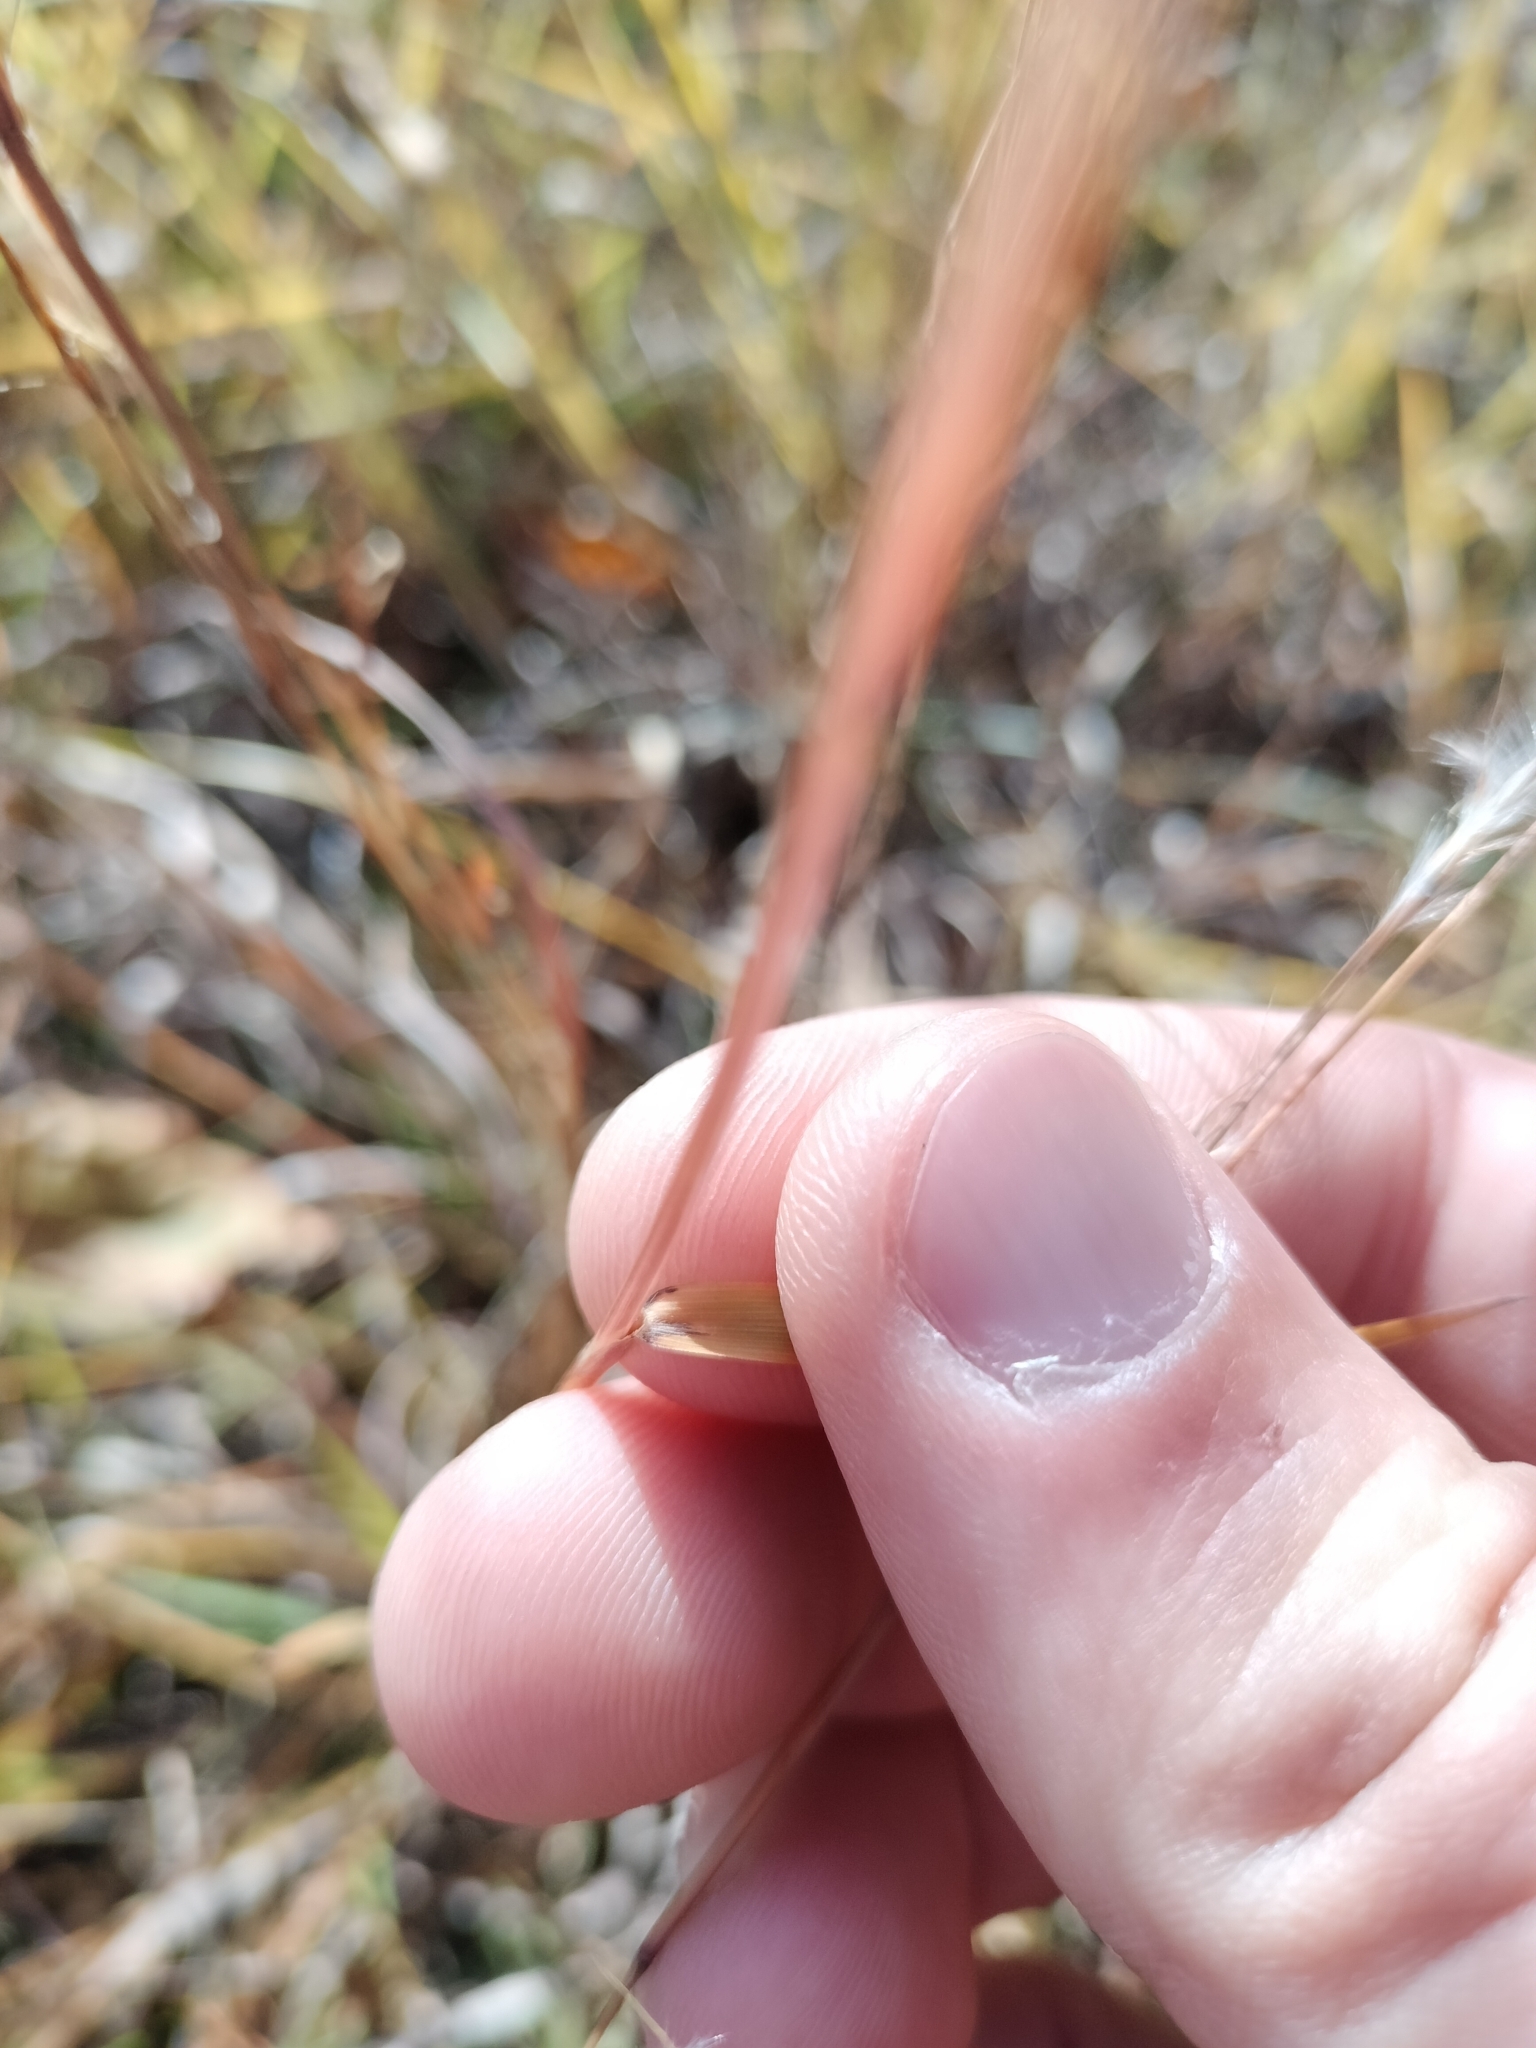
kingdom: Plantae
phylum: Tracheophyta
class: Liliopsida
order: Poales
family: Poaceae
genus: Schizachyrium
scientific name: Schizachyrium scoparium
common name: Little bluestem
